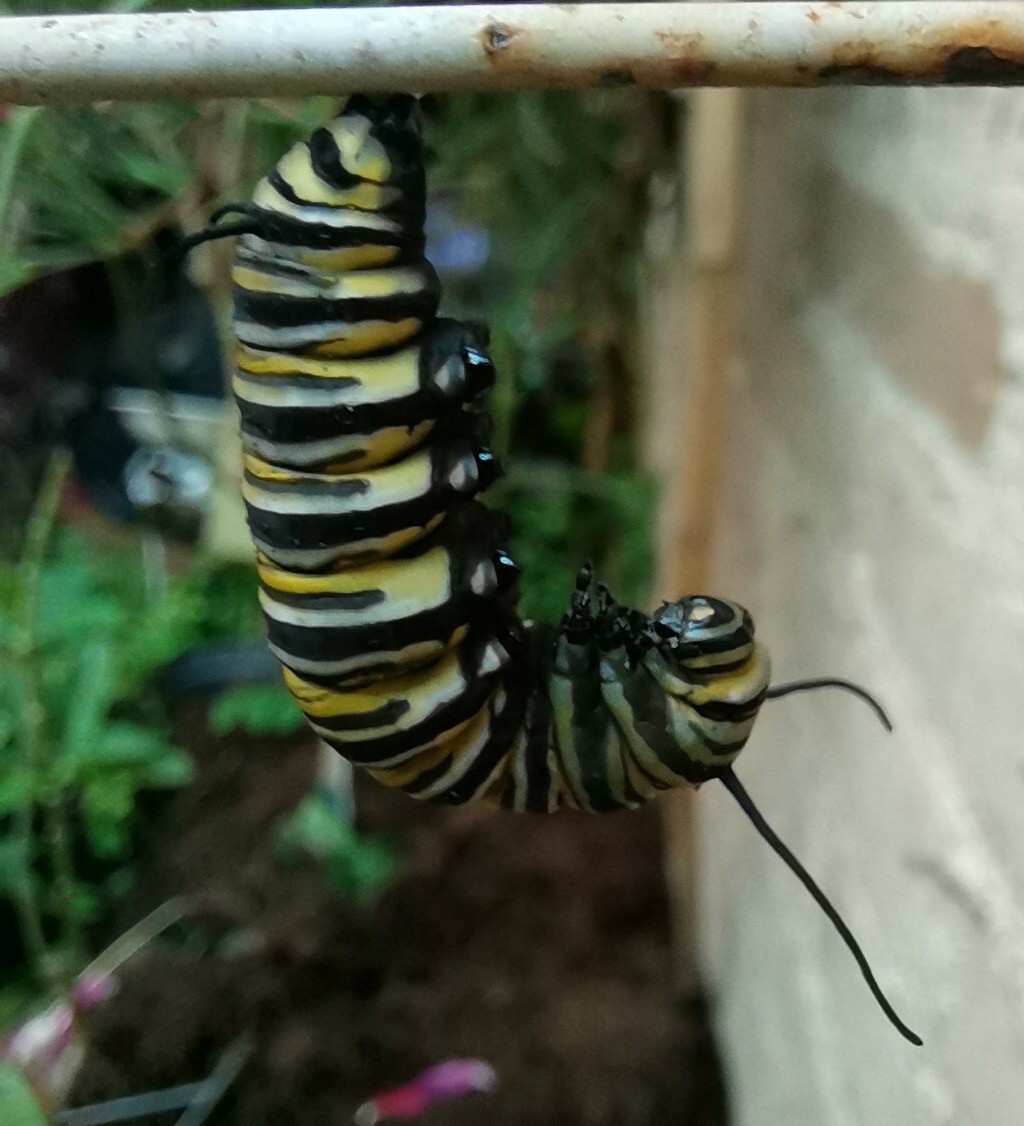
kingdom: Animalia
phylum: Arthropoda
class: Insecta
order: Lepidoptera
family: Nymphalidae
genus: Danaus
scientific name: Danaus plexippus
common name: Monarch
